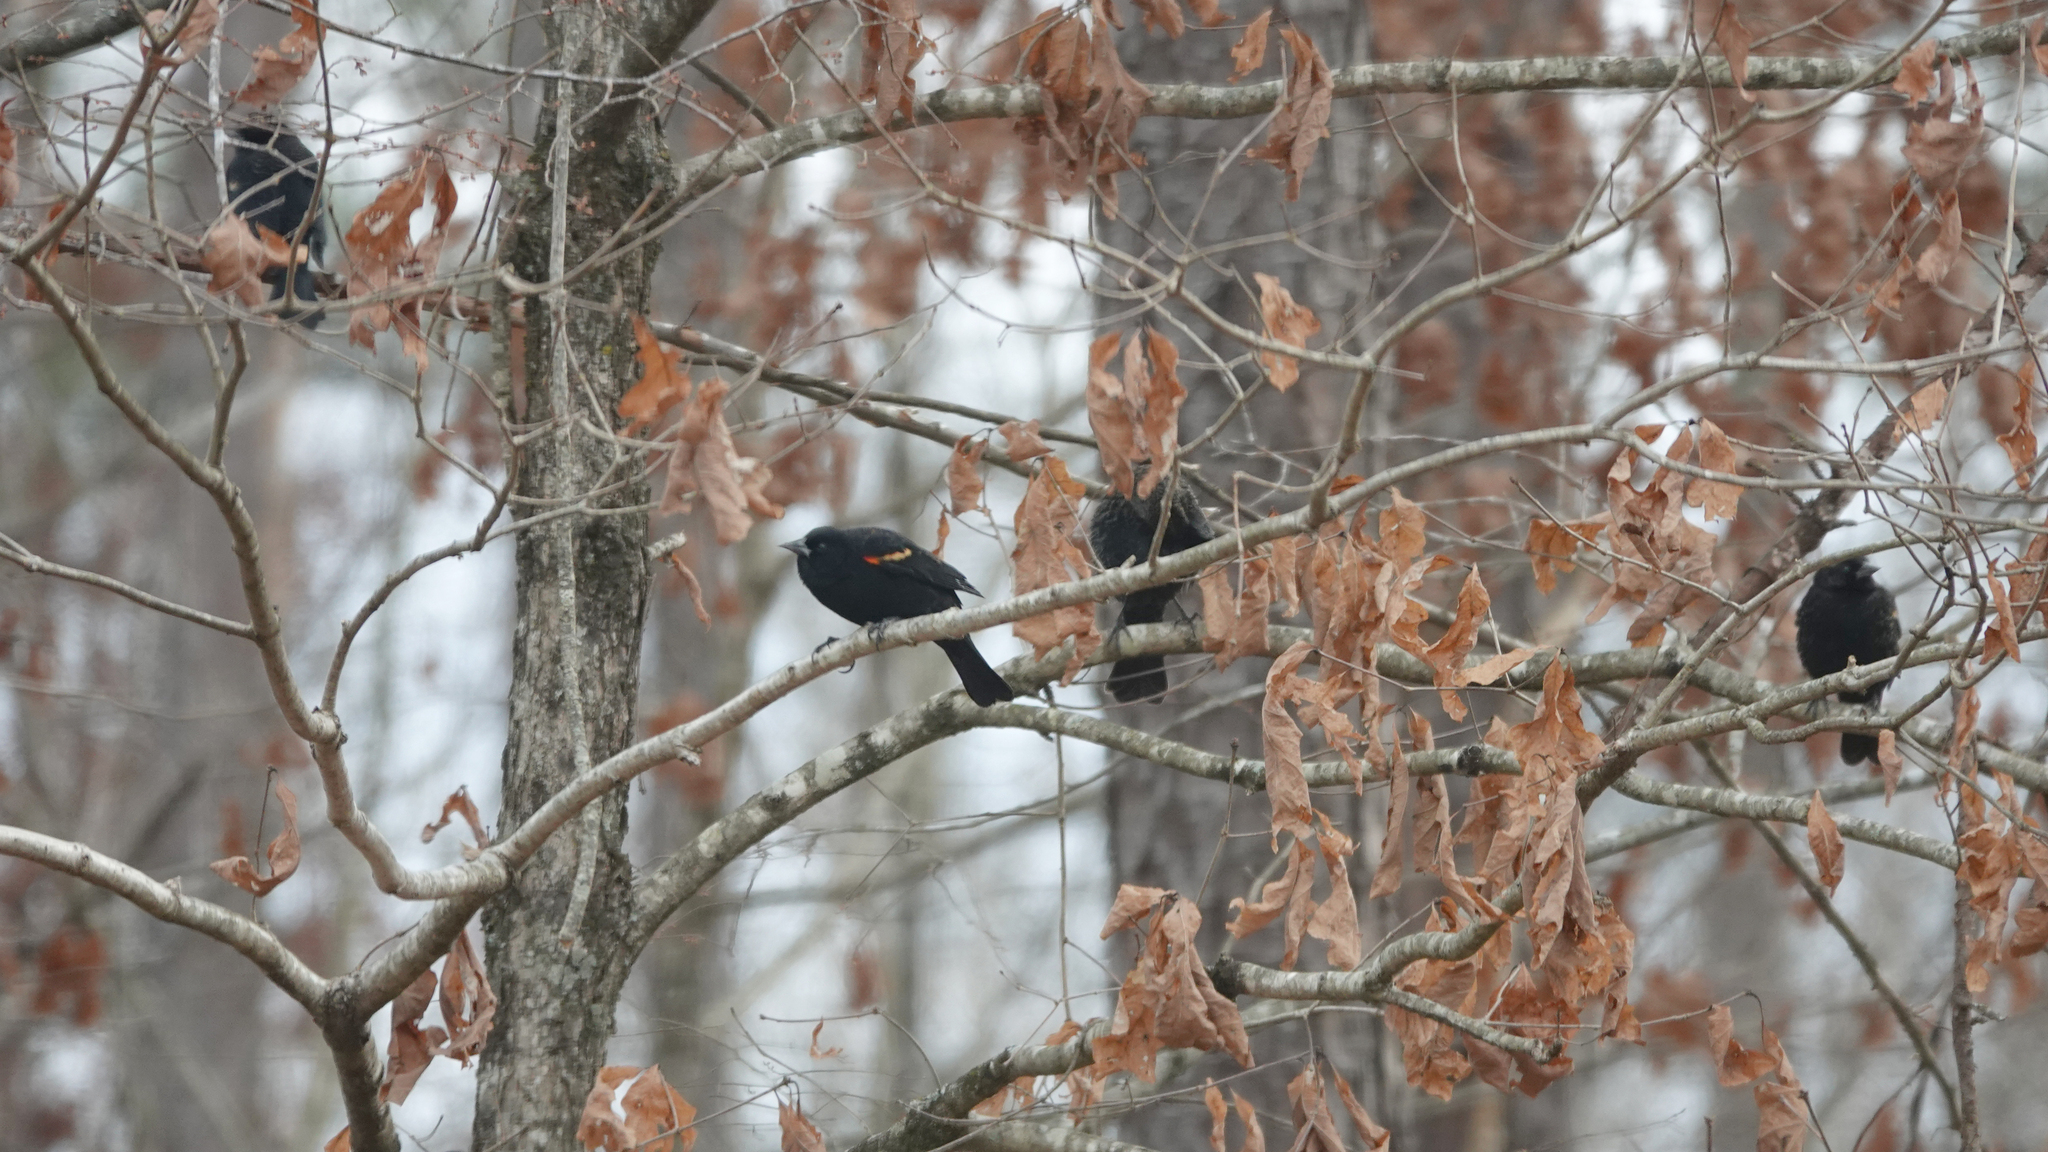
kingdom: Animalia
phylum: Chordata
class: Aves
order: Passeriformes
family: Icteridae
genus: Agelaius
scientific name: Agelaius phoeniceus
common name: Red-winged blackbird
